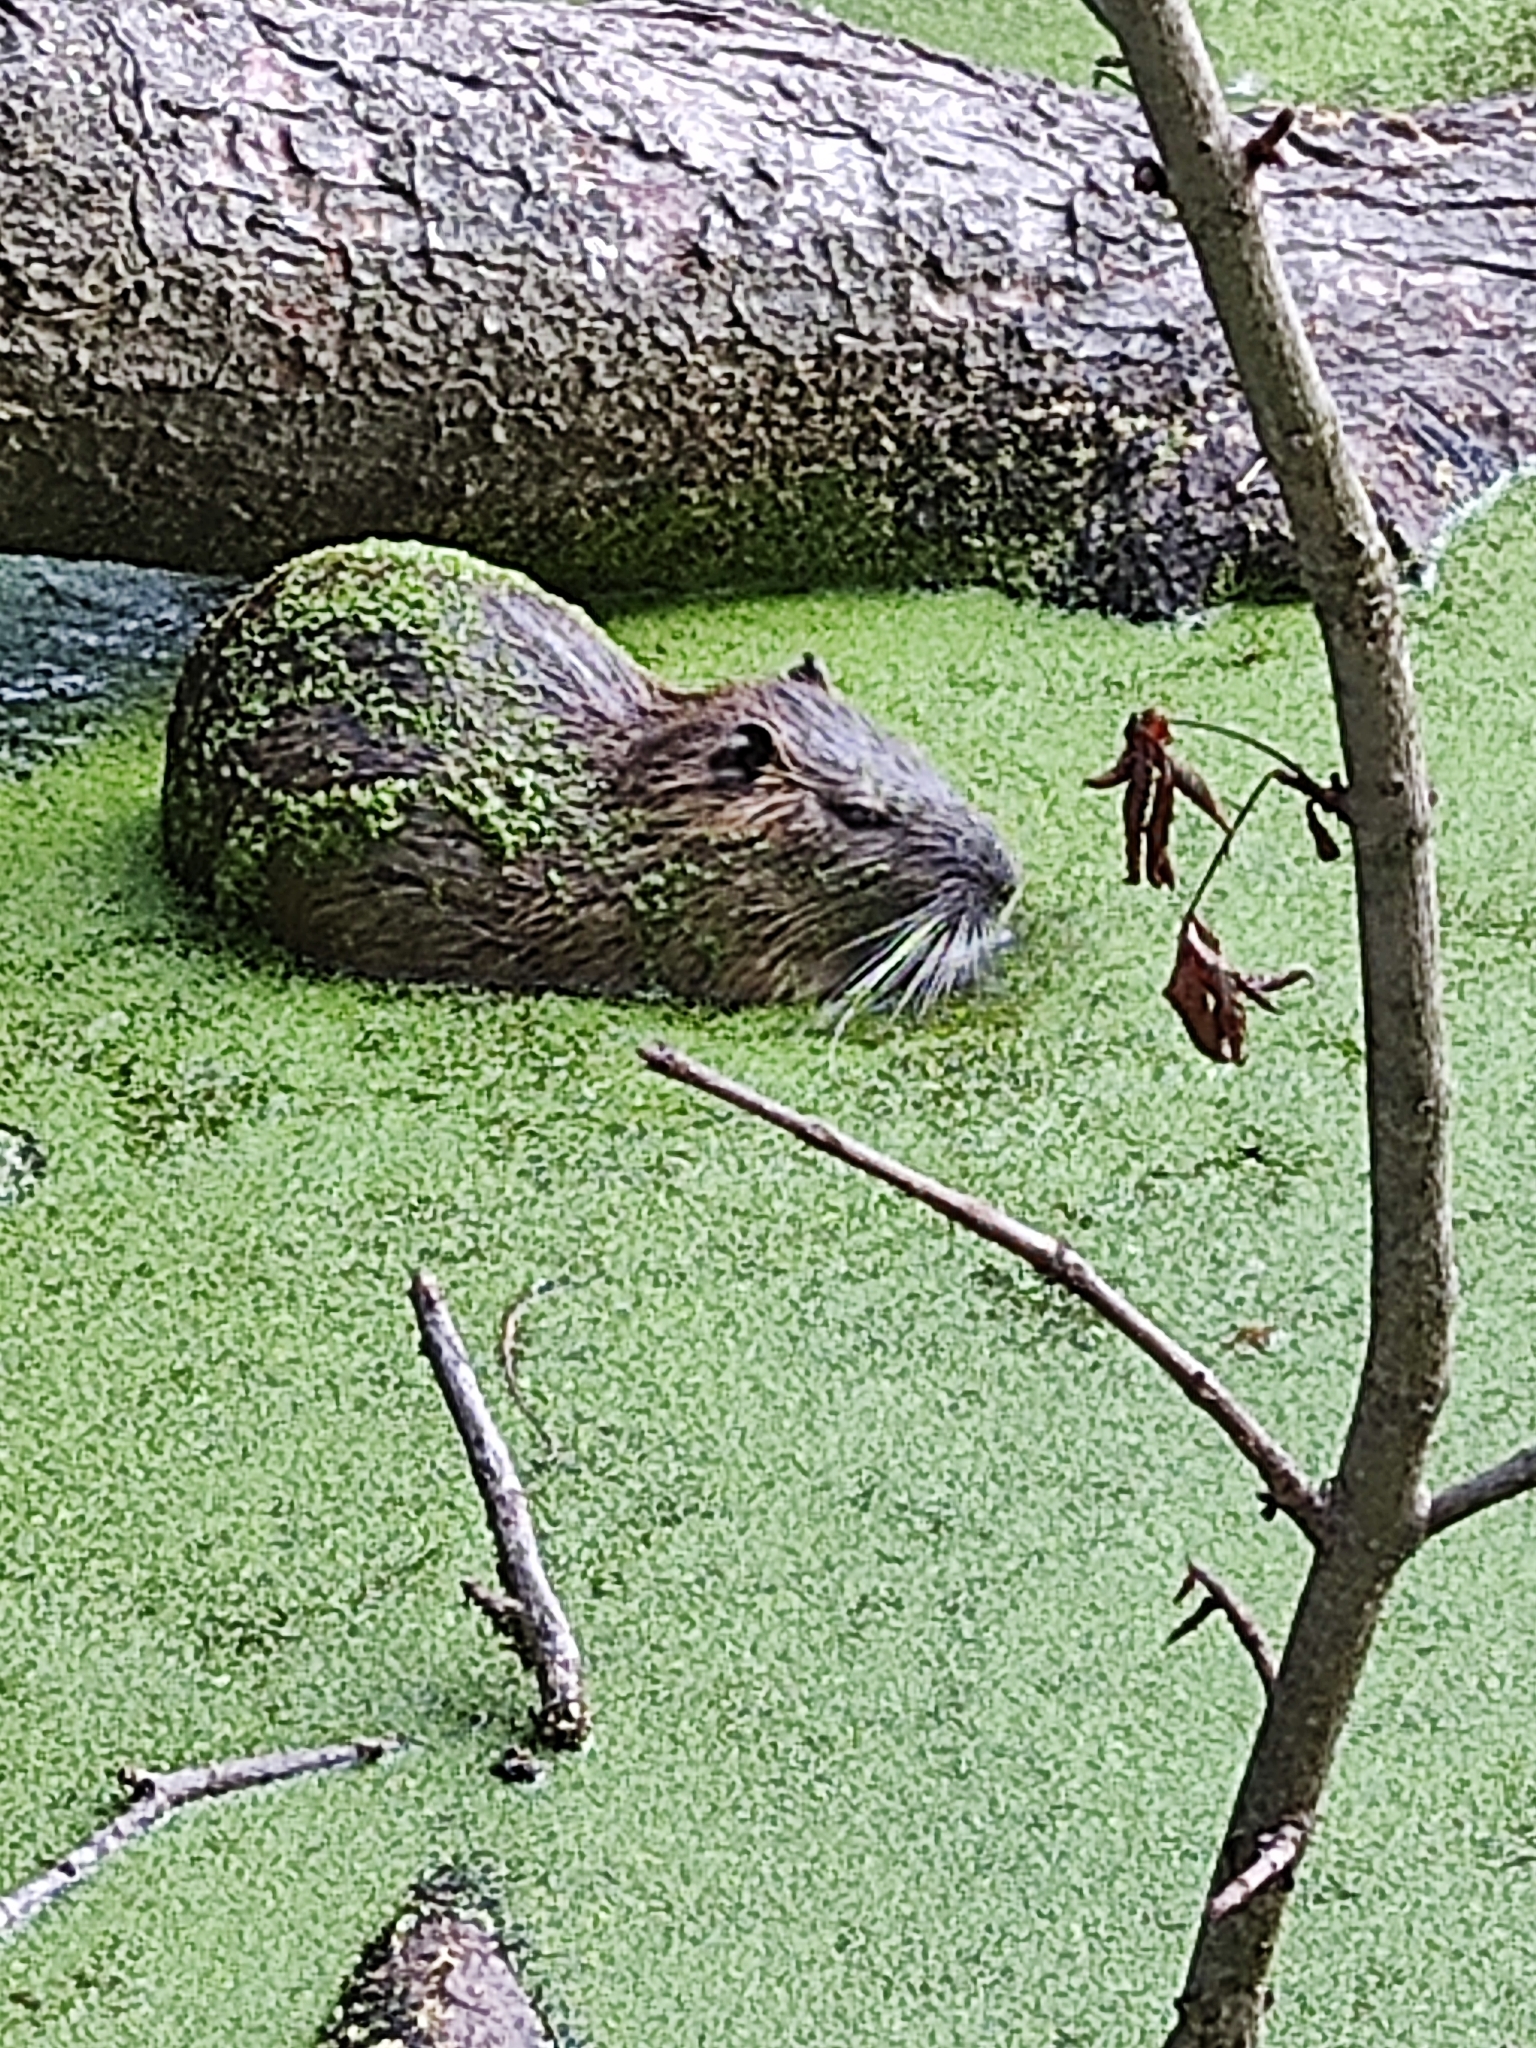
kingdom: Animalia
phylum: Chordata
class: Mammalia
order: Rodentia
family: Myocastoridae
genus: Myocastor
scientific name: Myocastor coypus
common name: Coypu
